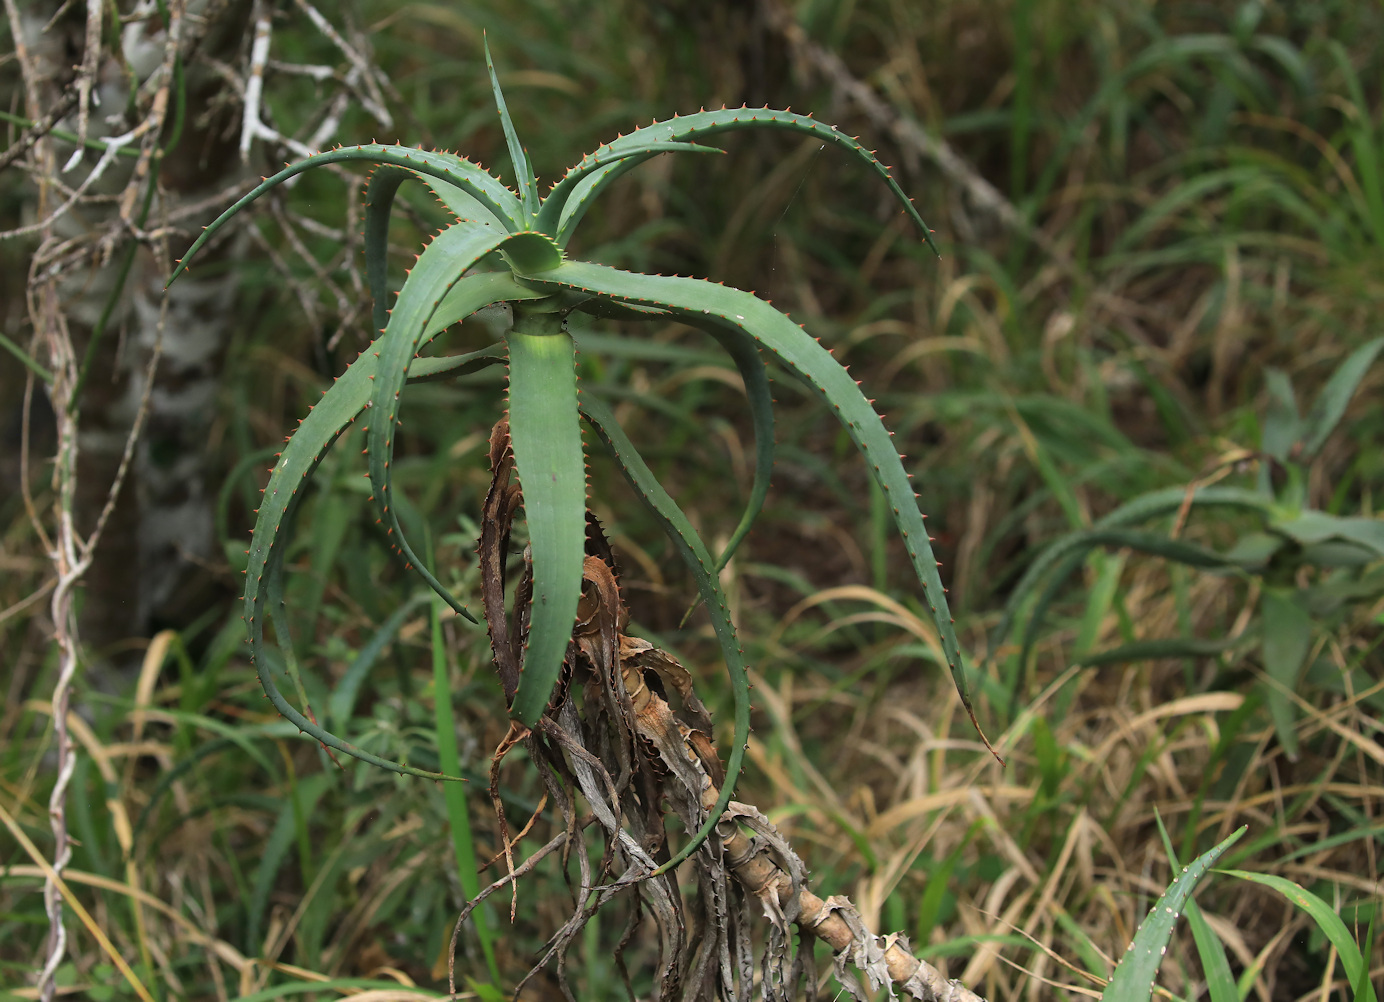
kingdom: Plantae
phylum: Tracheophyta
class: Liliopsida
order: Asparagales
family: Asphodelaceae
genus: Aloe
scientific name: Aloe arborescens
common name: Candelabra aloe
